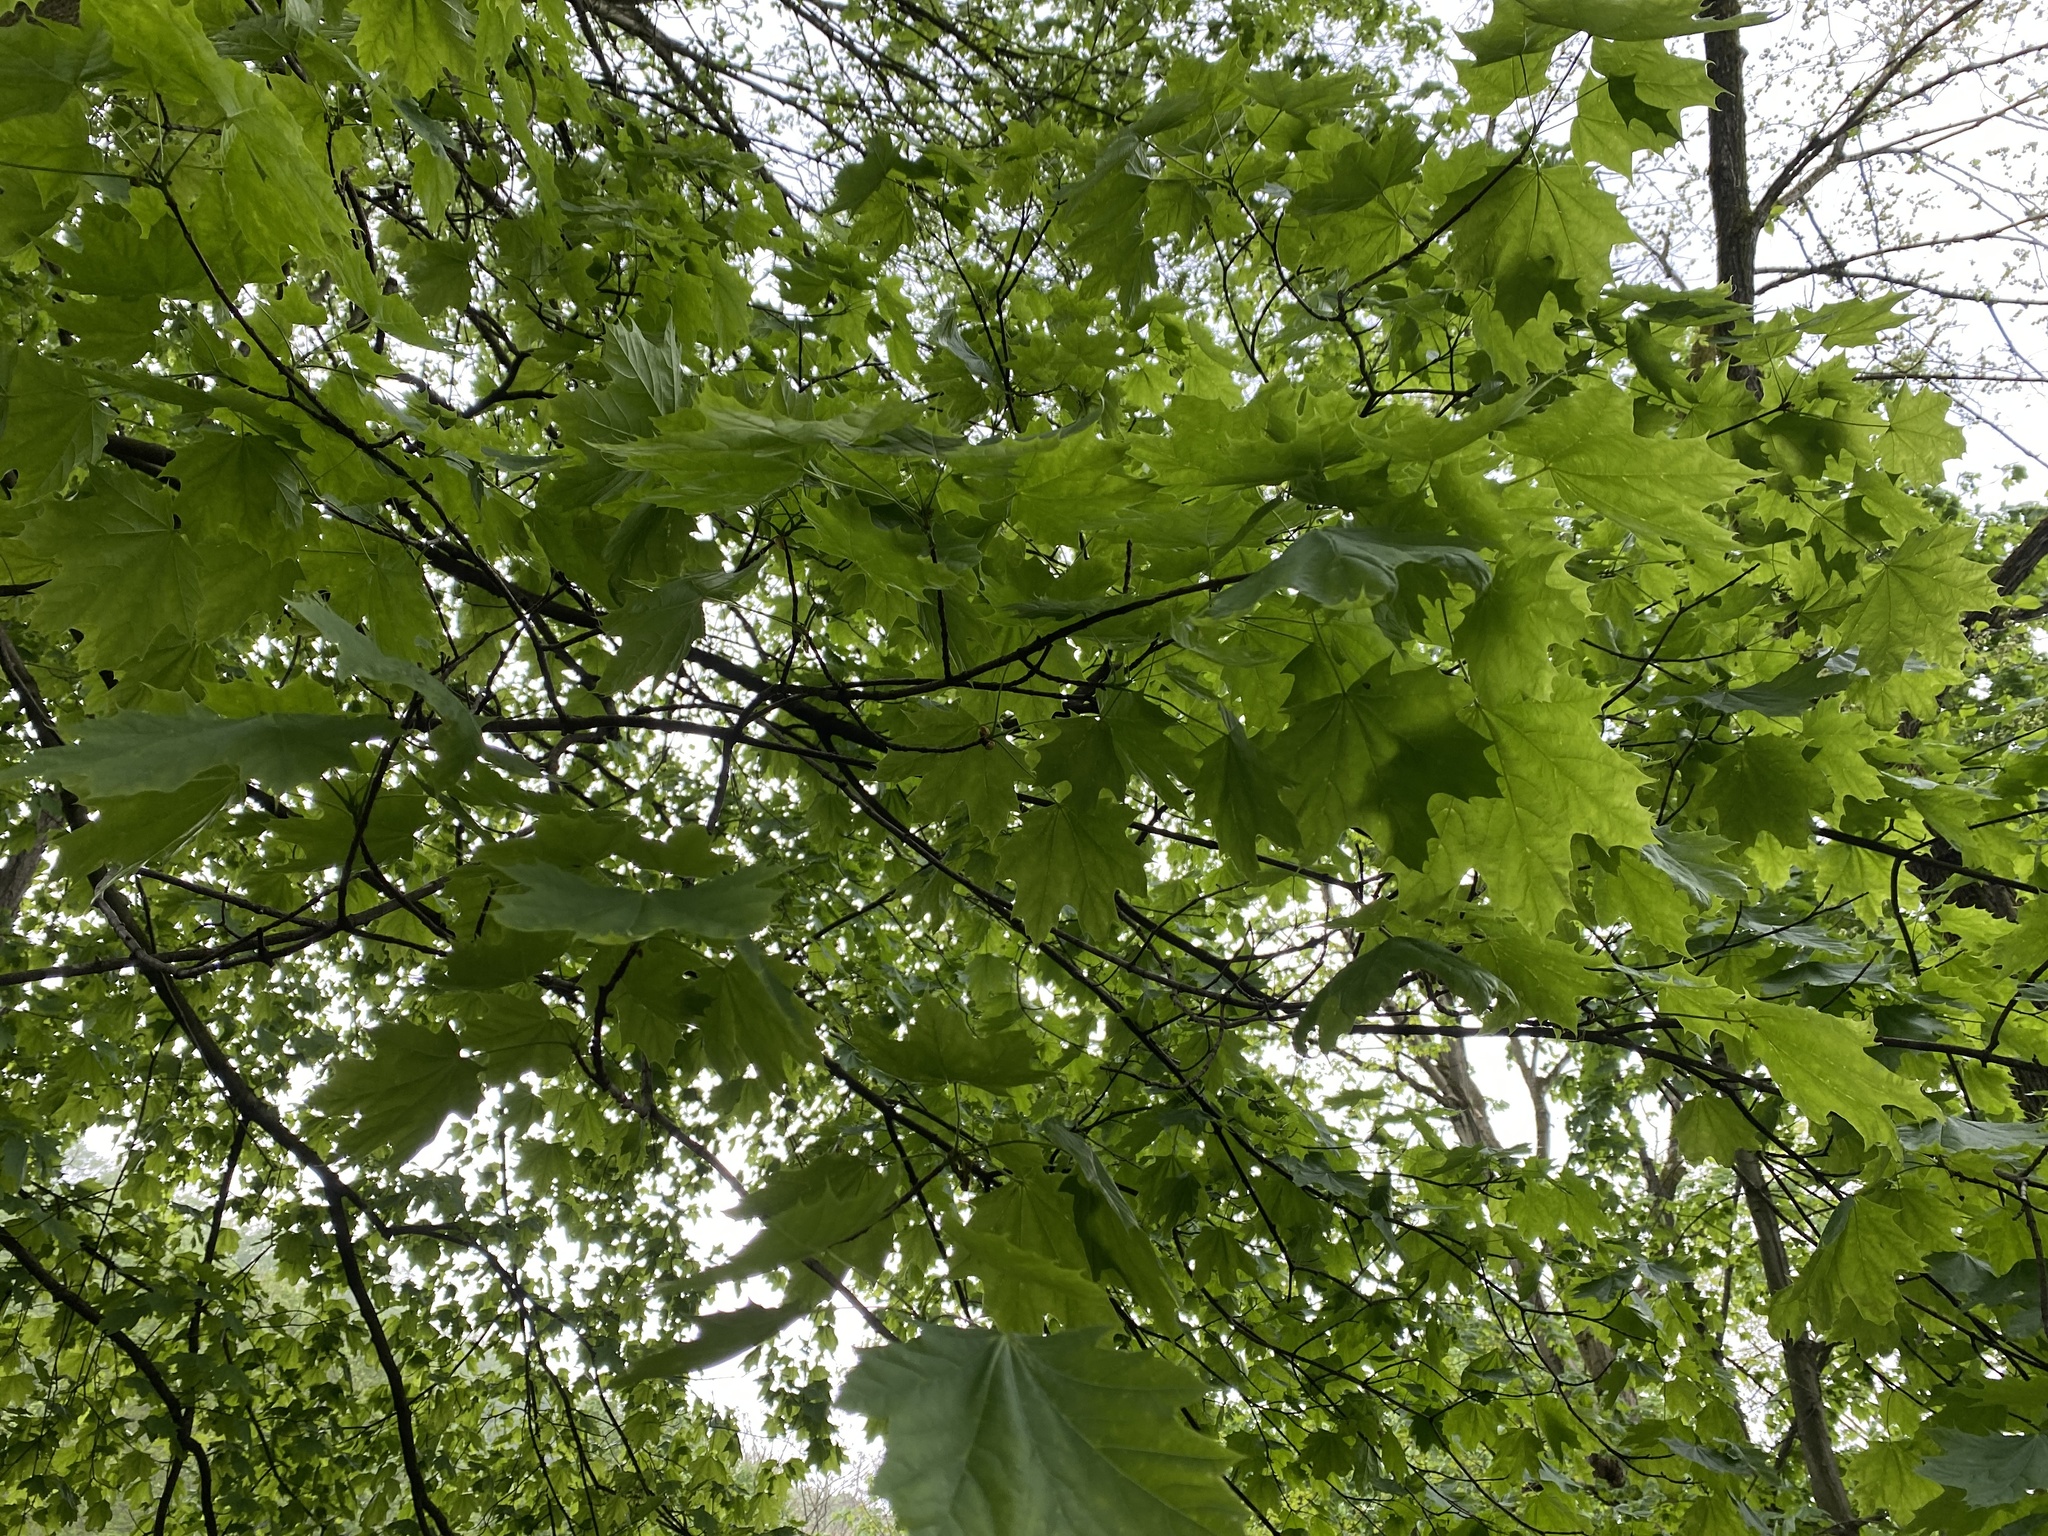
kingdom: Plantae
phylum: Tracheophyta
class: Magnoliopsida
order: Sapindales
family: Sapindaceae
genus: Acer
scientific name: Acer platanoides
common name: Norway maple
